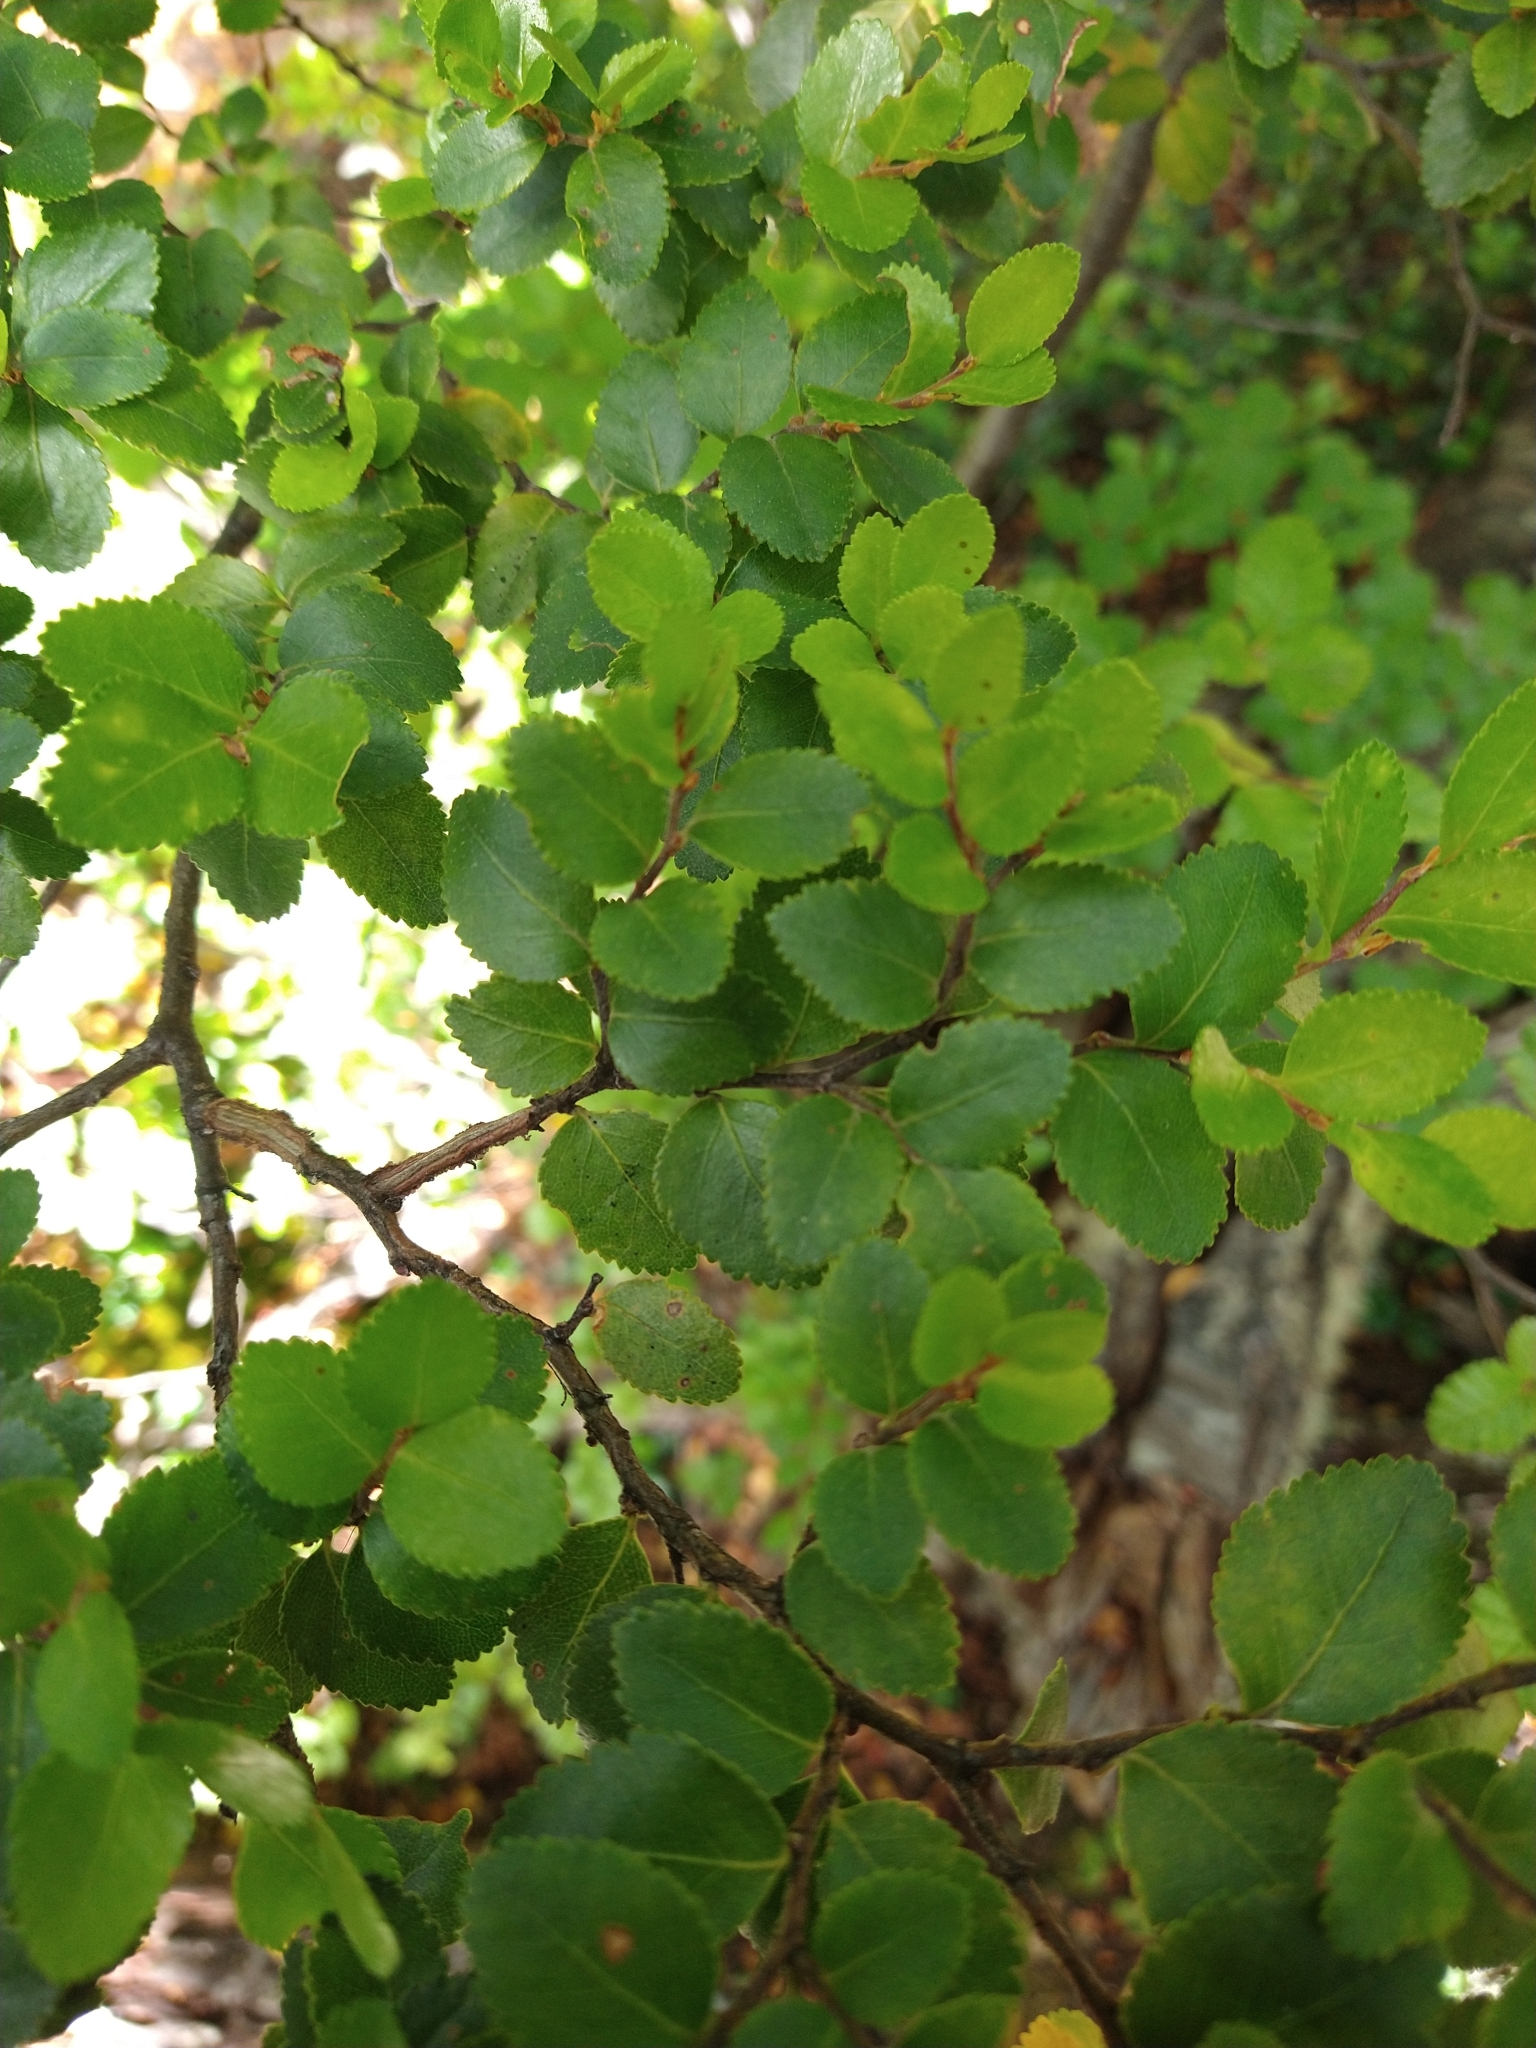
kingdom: Plantae
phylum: Tracheophyta
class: Magnoliopsida
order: Fagales
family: Nothofagaceae
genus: Nothofagus
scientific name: Nothofagus betuloides
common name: Magellan's beech
